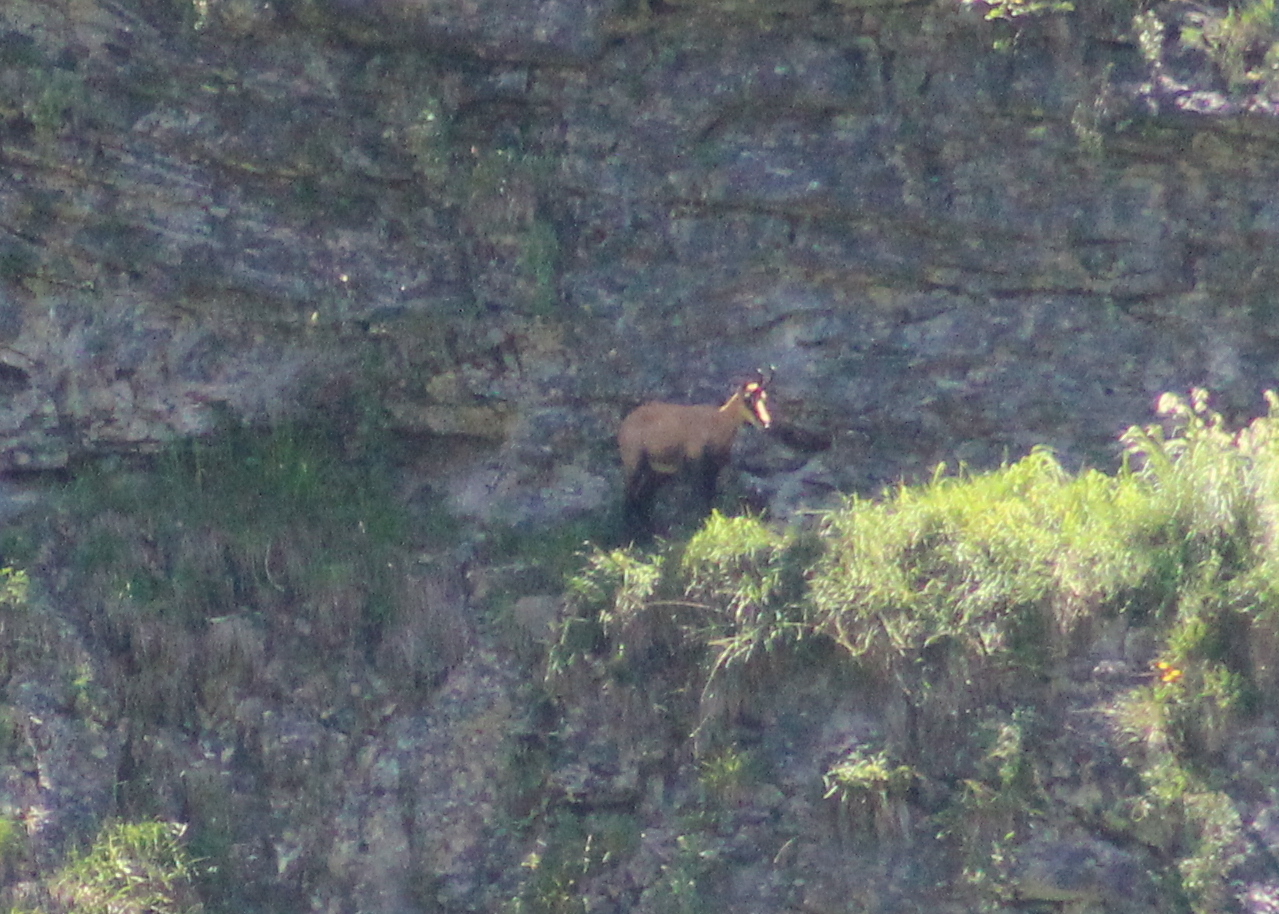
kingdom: Animalia
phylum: Chordata
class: Mammalia
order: Artiodactyla
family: Bovidae
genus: Rupicapra
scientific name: Rupicapra rupicapra
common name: Chamois
